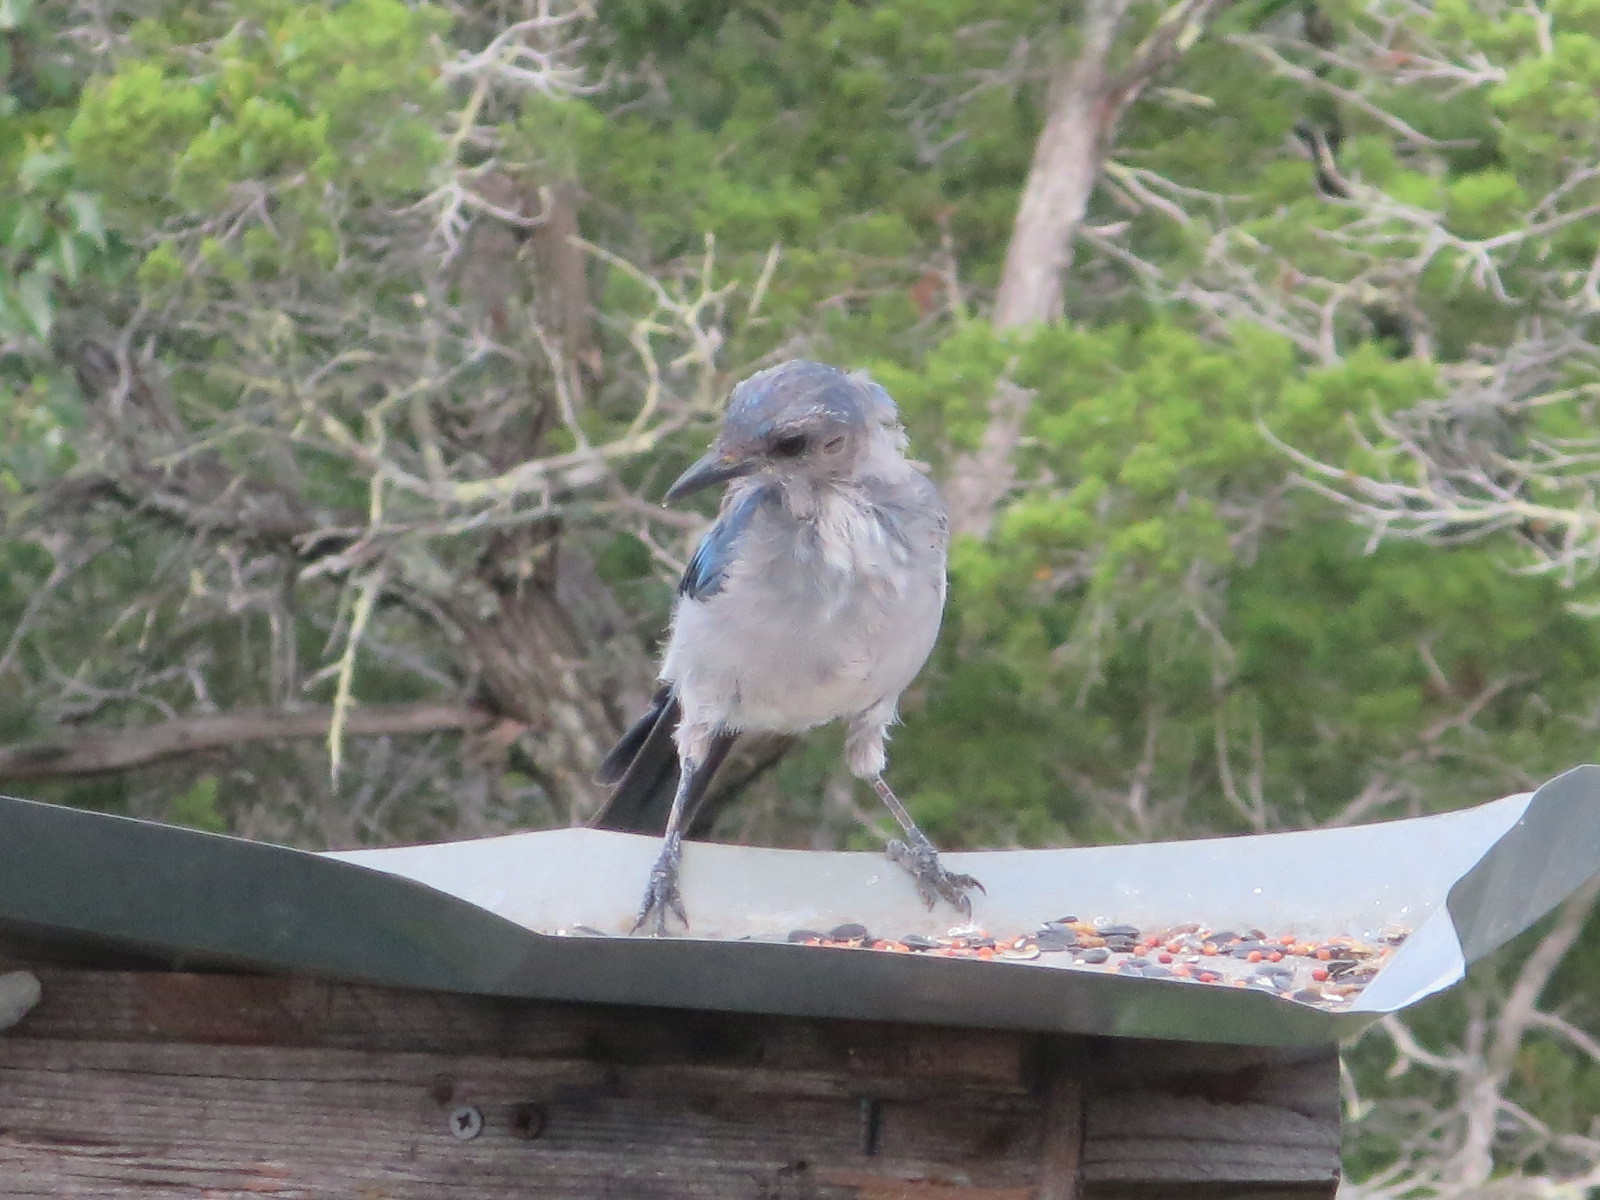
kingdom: Animalia
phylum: Chordata
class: Aves
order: Passeriformes
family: Corvidae
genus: Aphelocoma
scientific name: Aphelocoma woodhouseii
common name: Woodhouse's scrub-jay
